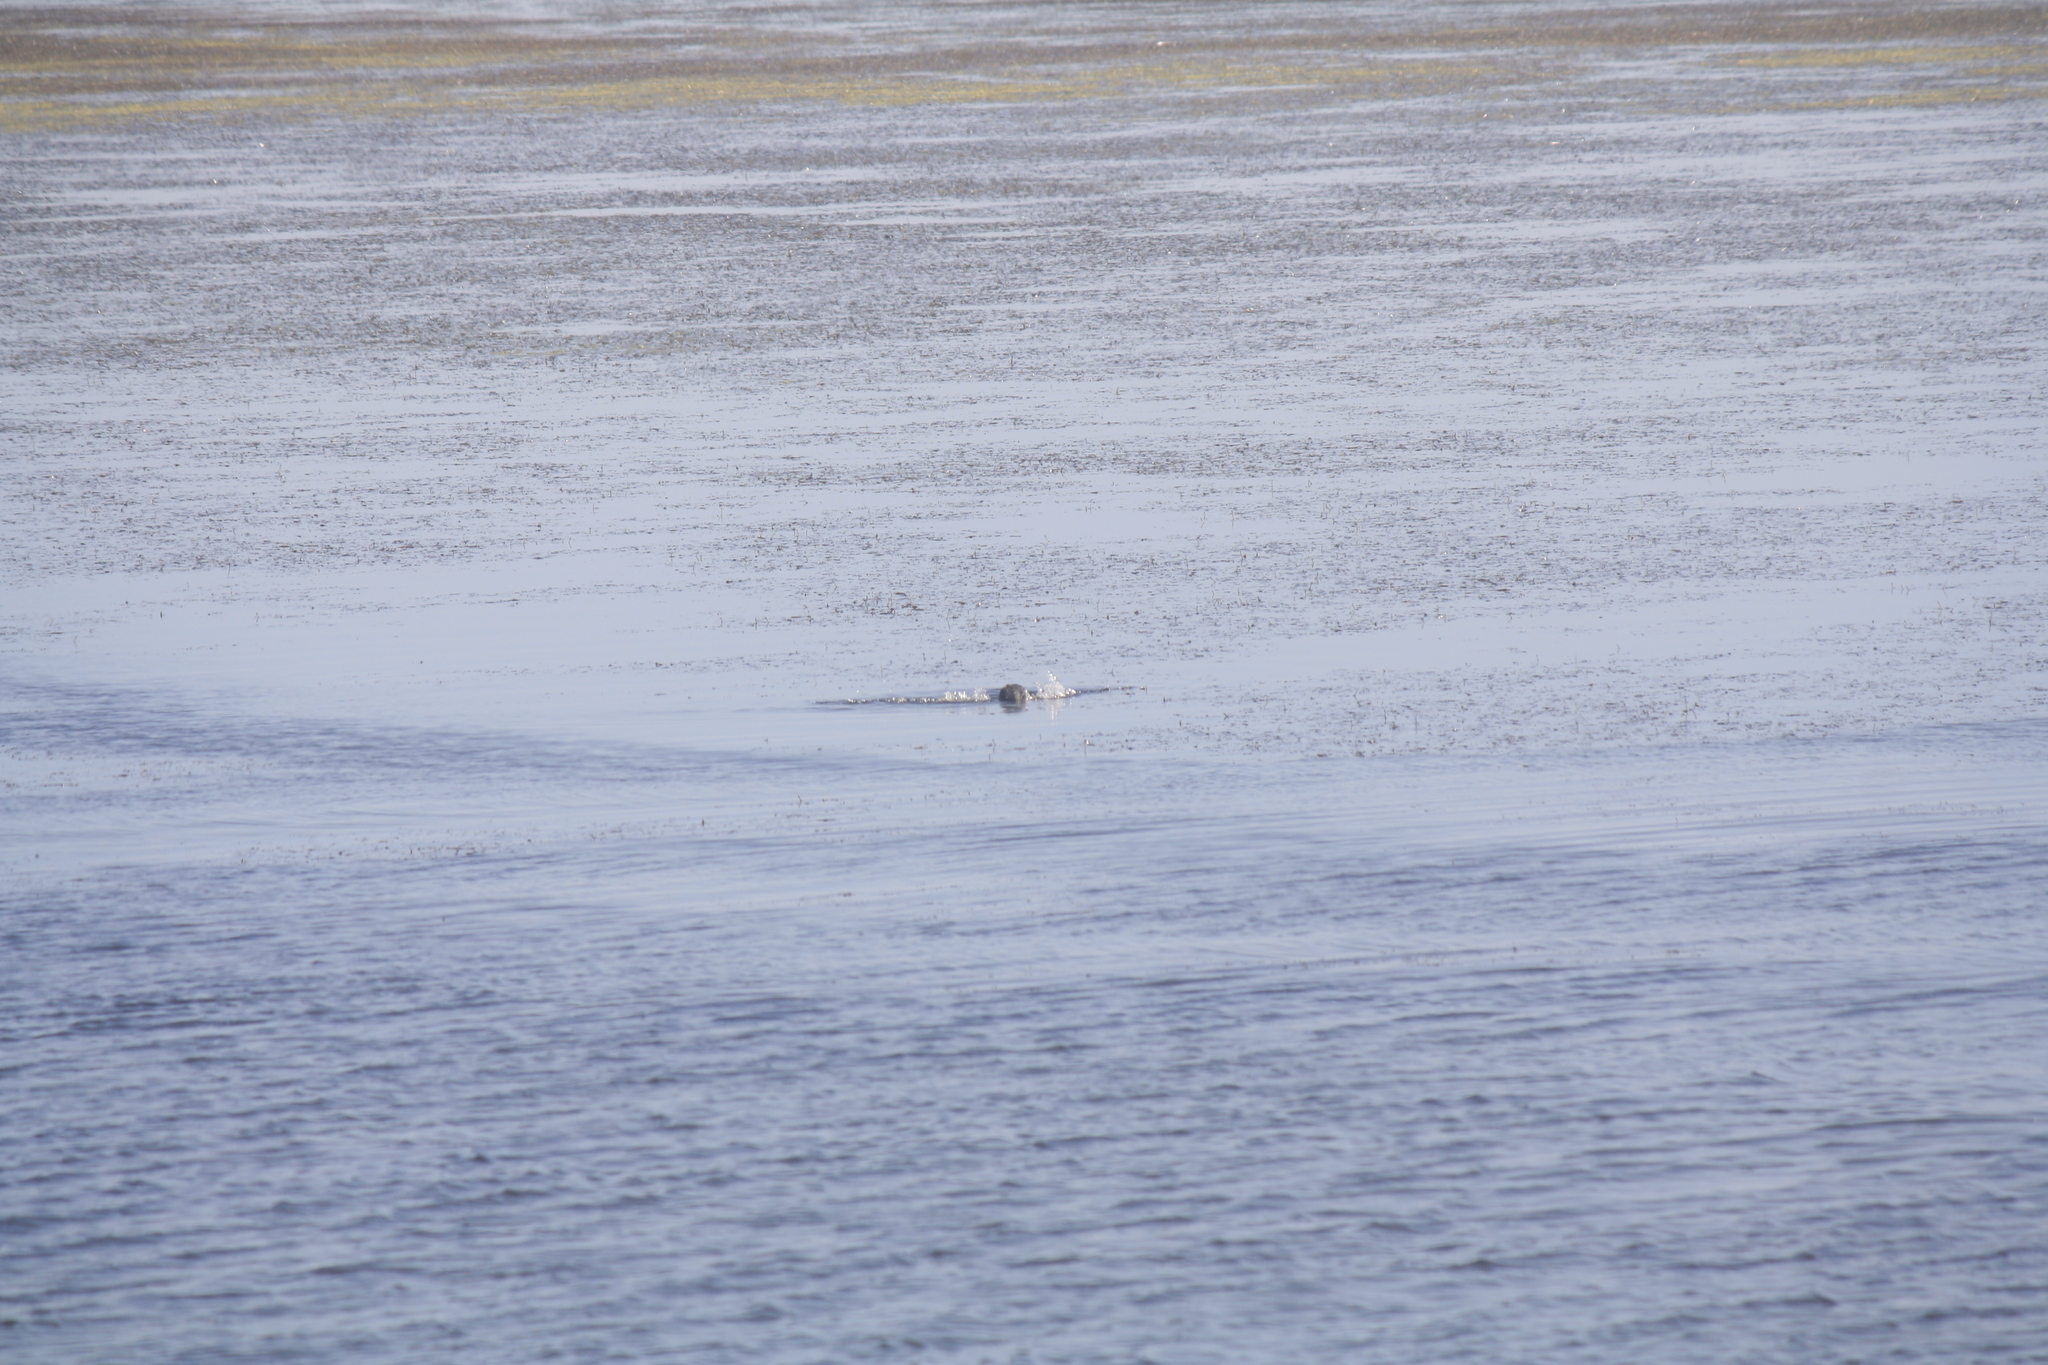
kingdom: Animalia
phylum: Chordata
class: Aves
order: Podicipediformes
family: Podicipedidae
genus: Podiceps
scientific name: Podiceps cristatus
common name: Great crested grebe
